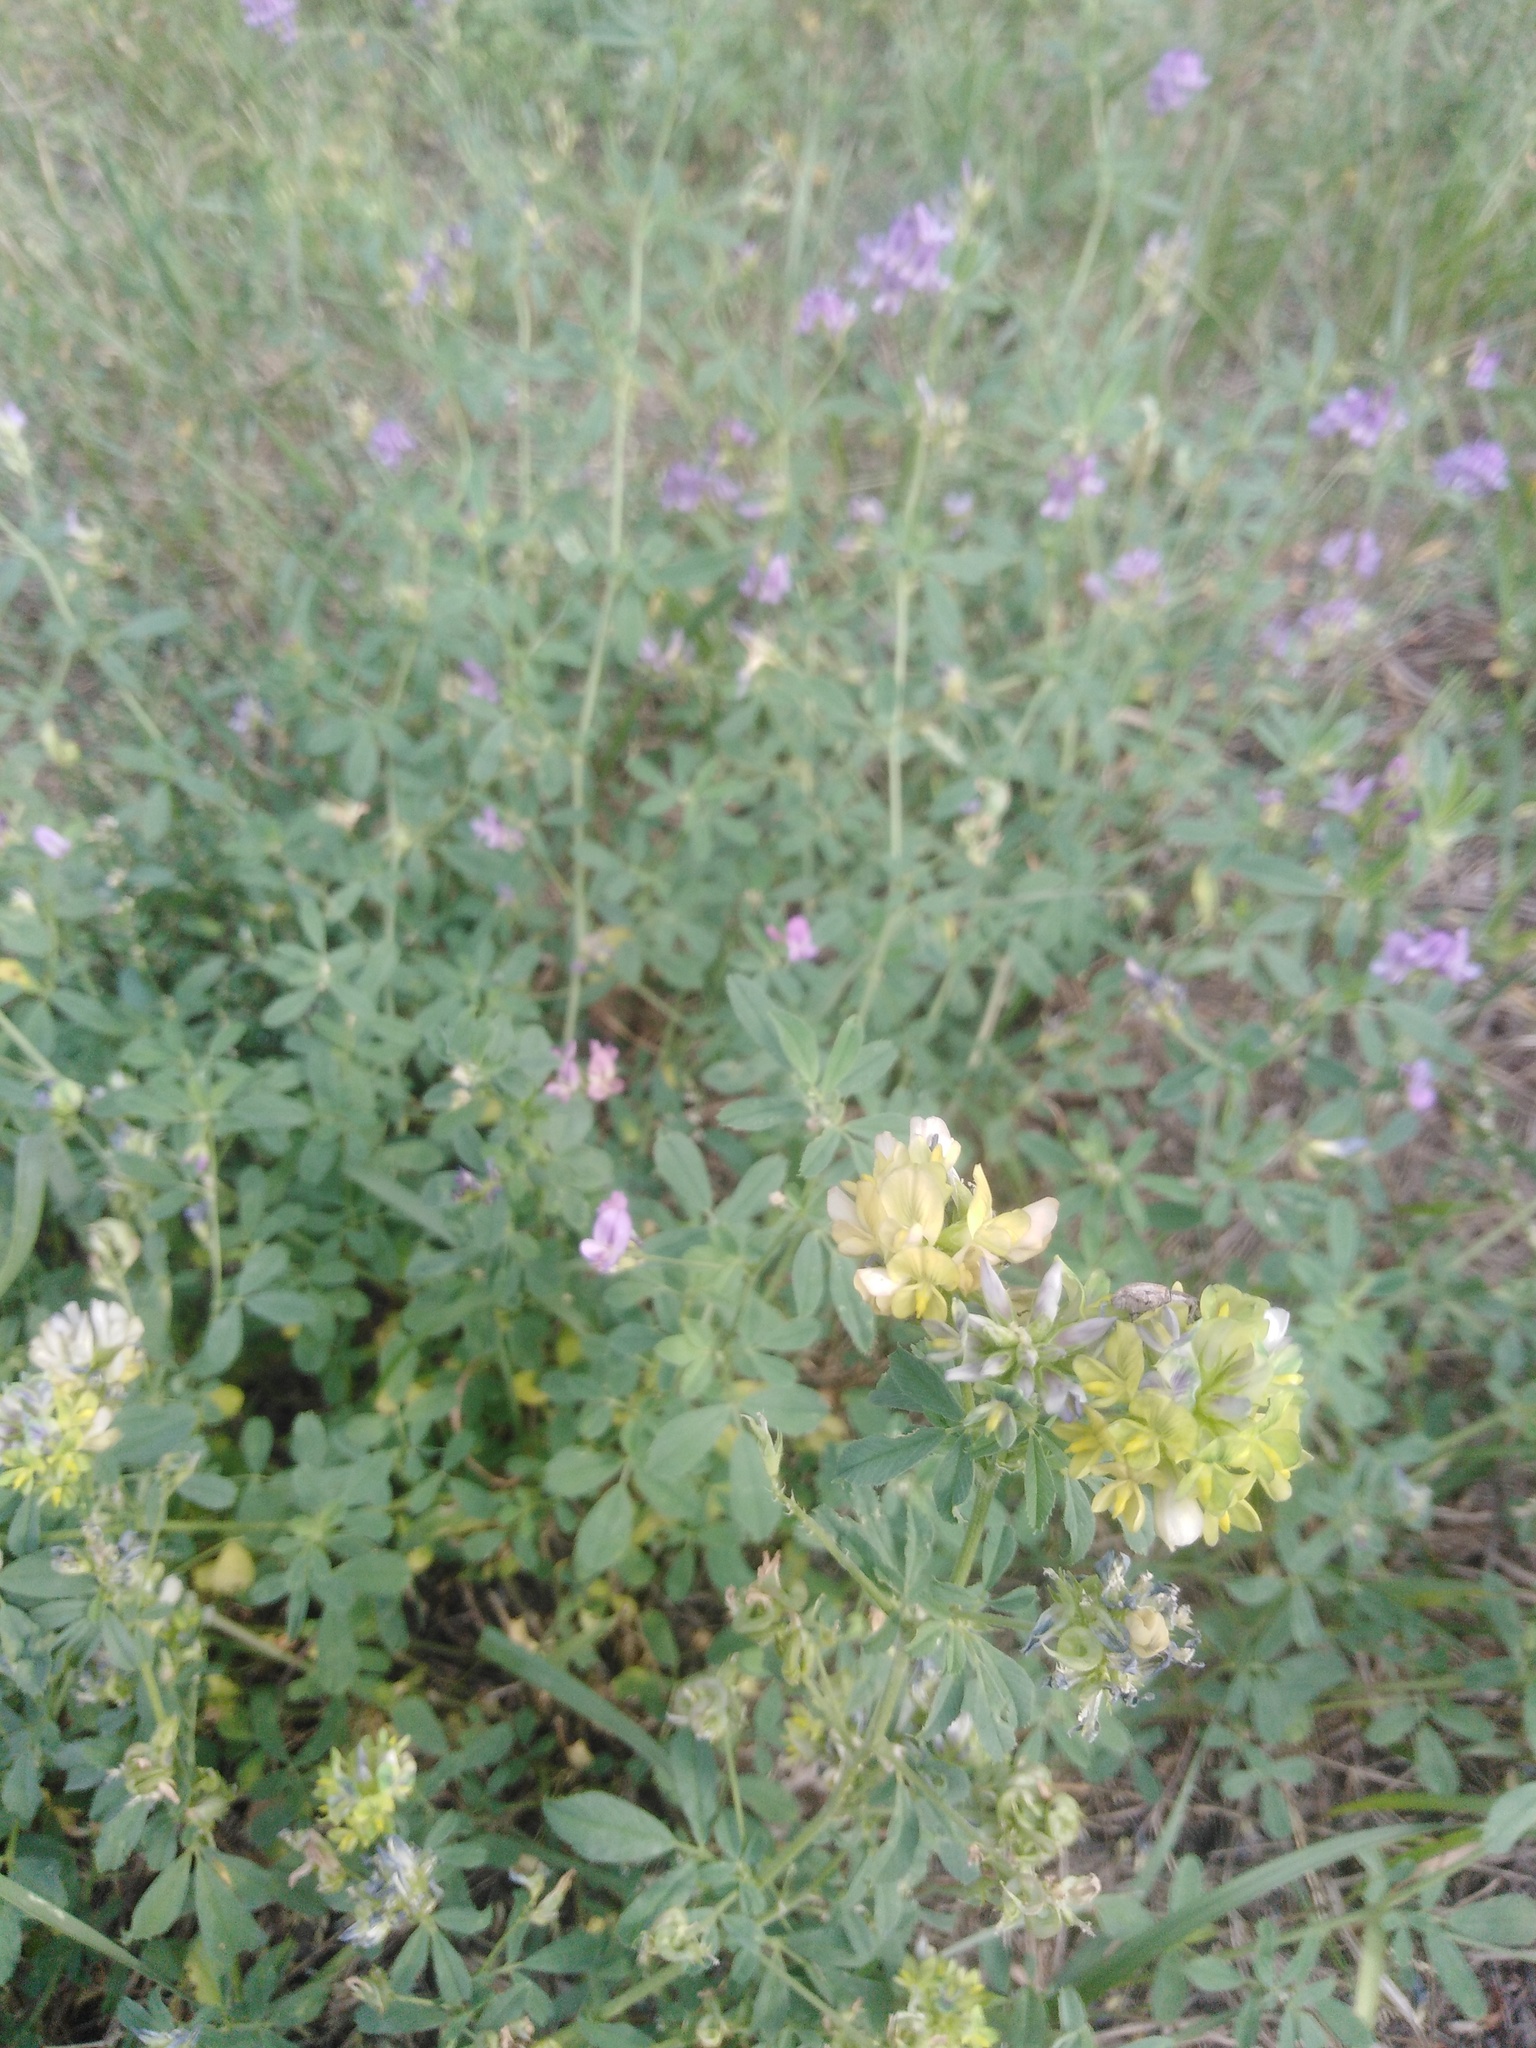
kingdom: Plantae
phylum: Tracheophyta
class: Magnoliopsida
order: Fabales
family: Fabaceae
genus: Medicago
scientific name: Medicago varia
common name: Sand lucerne
